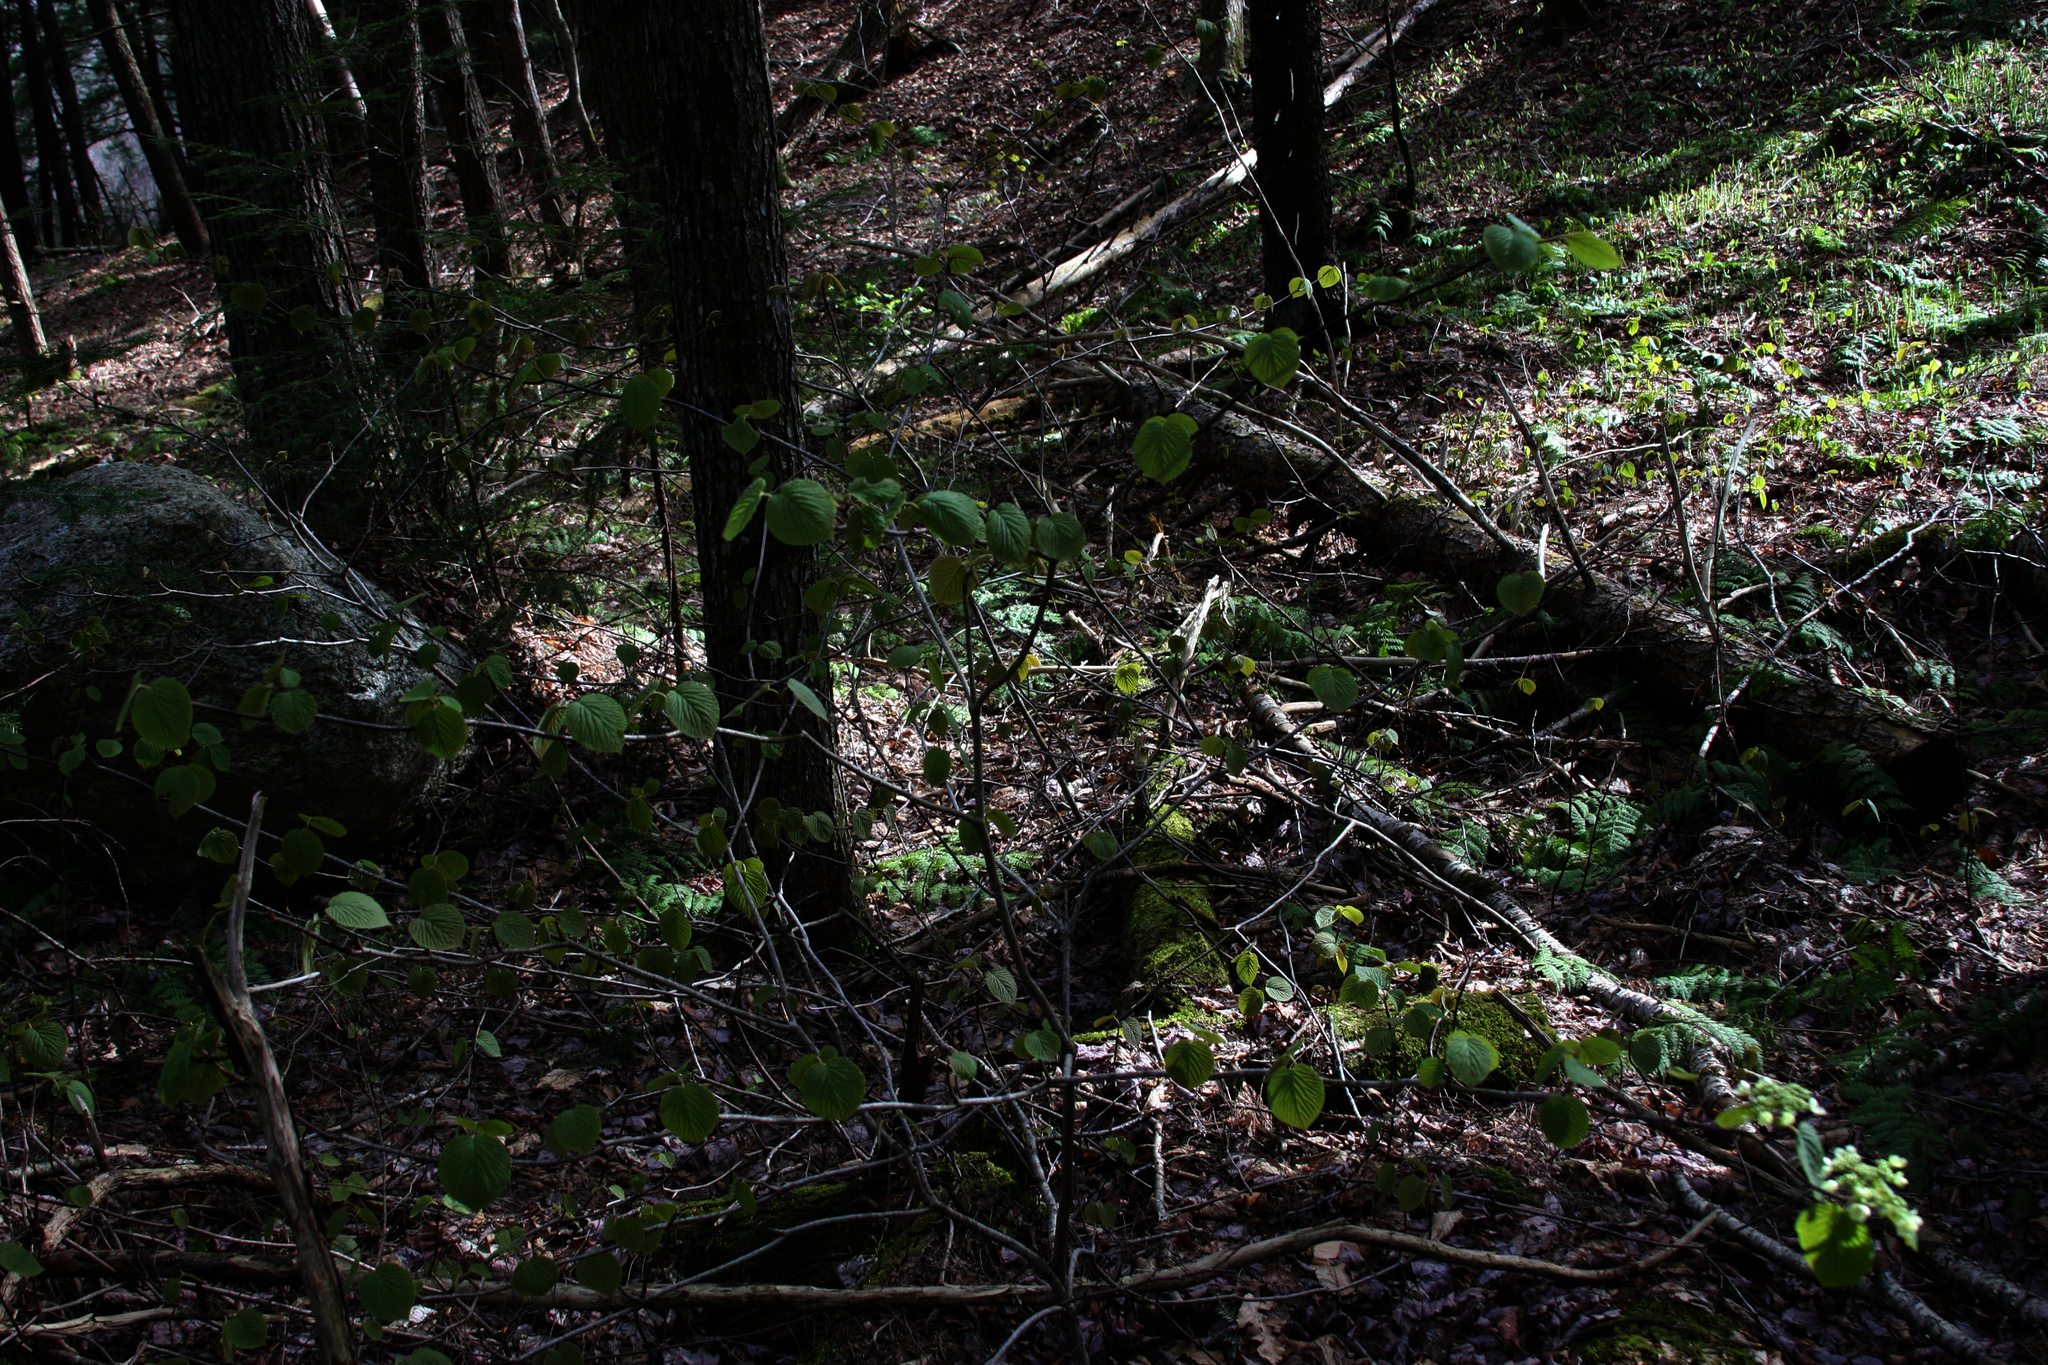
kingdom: Plantae
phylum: Tracheophyta
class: Magnoliopsida
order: Dipsacales
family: Viburnaceae
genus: Viburnum
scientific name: Viburnum lantanoides
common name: Hobblebush
